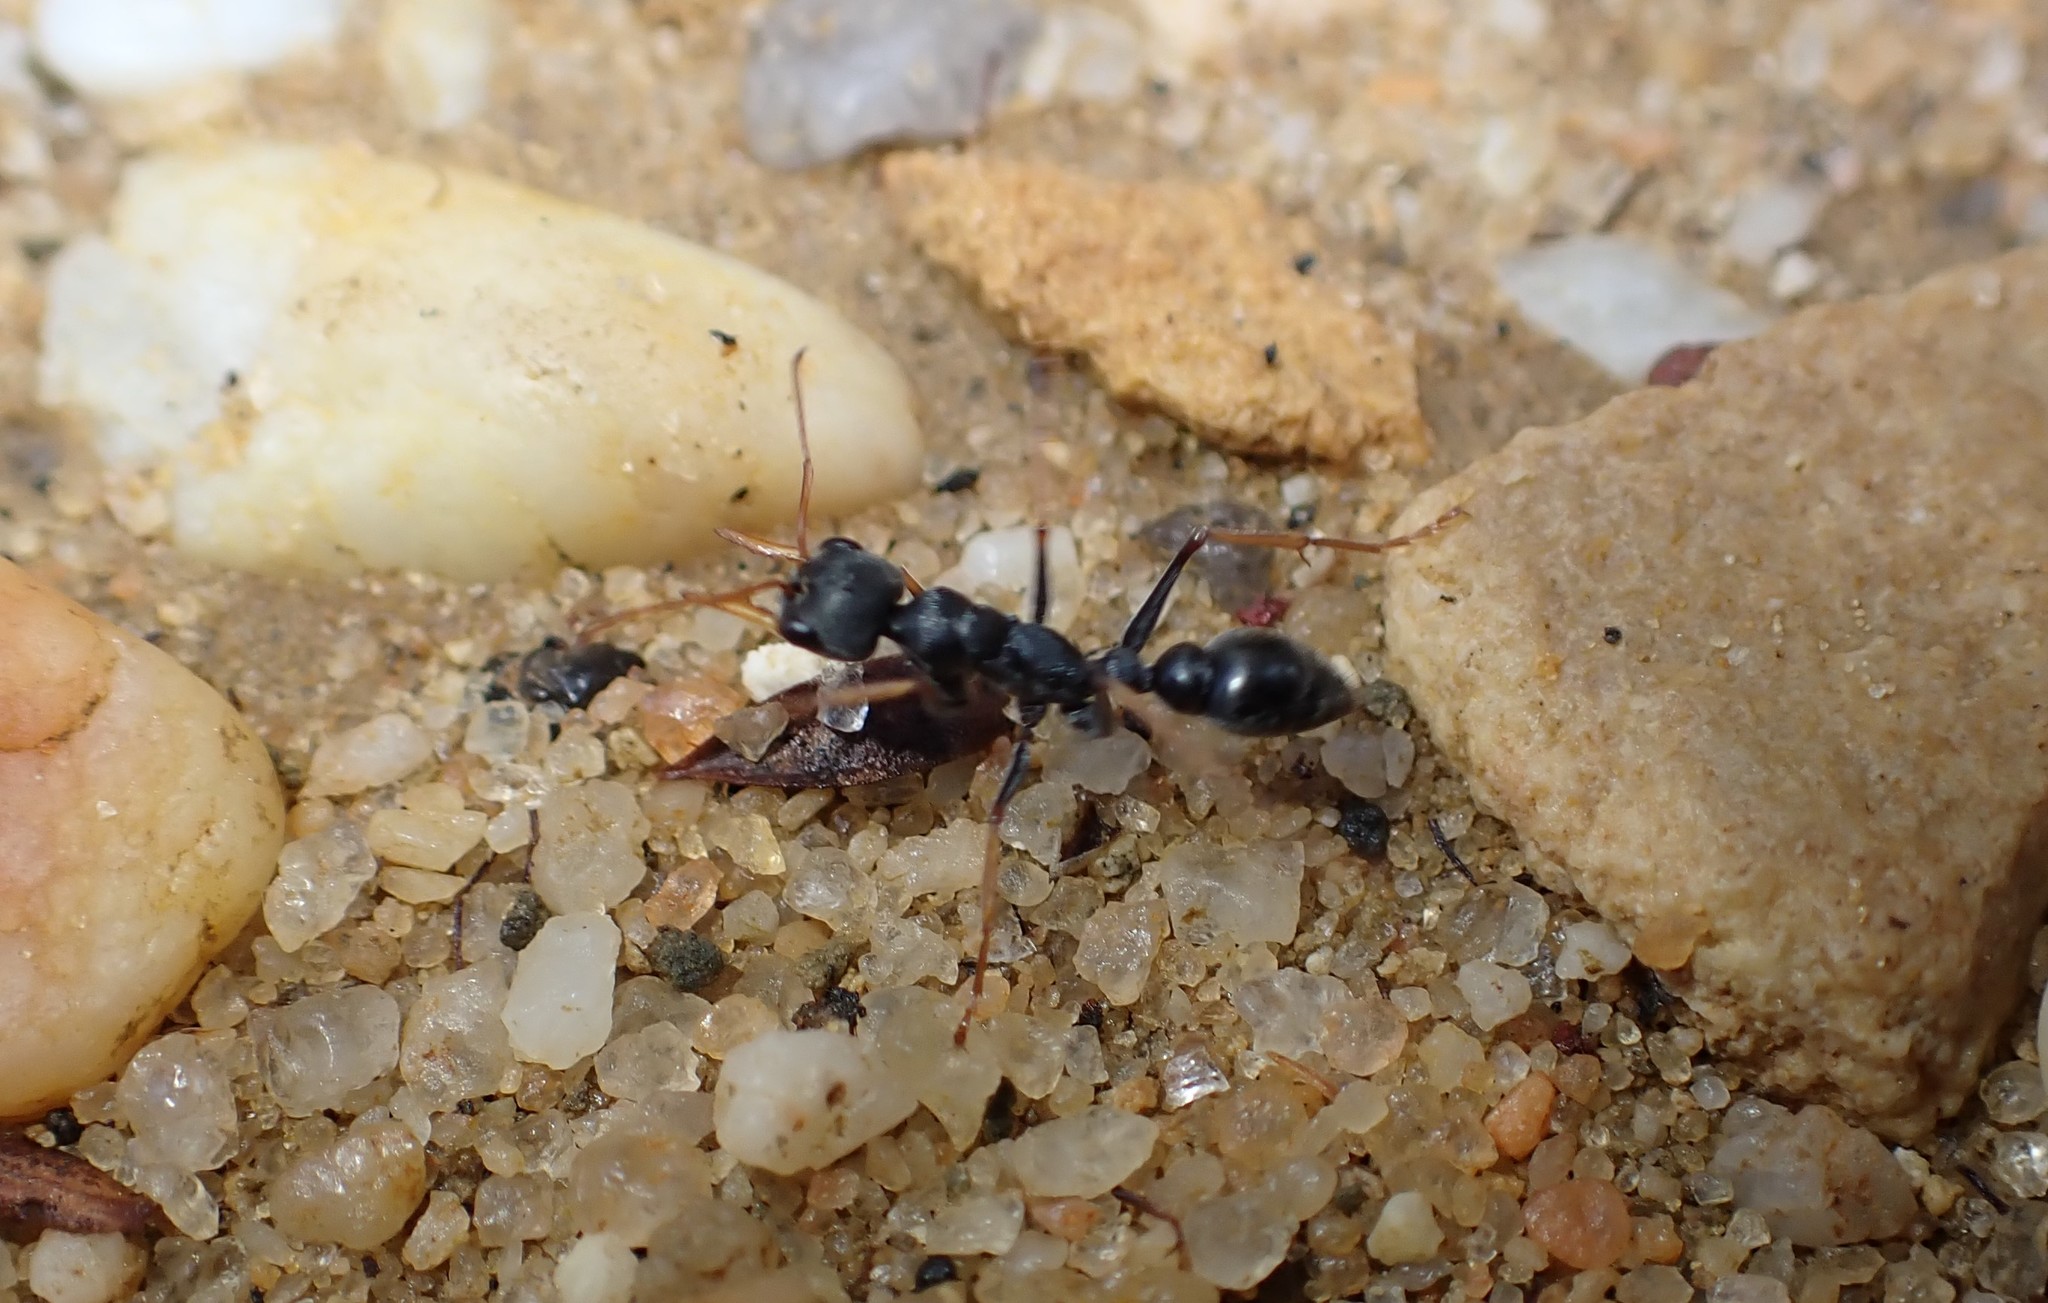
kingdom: Animalia
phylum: Arthropoda
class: Insecta
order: Hymenoptera
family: Formicidae
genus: Myrmecia
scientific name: Myrmecia pilosula
